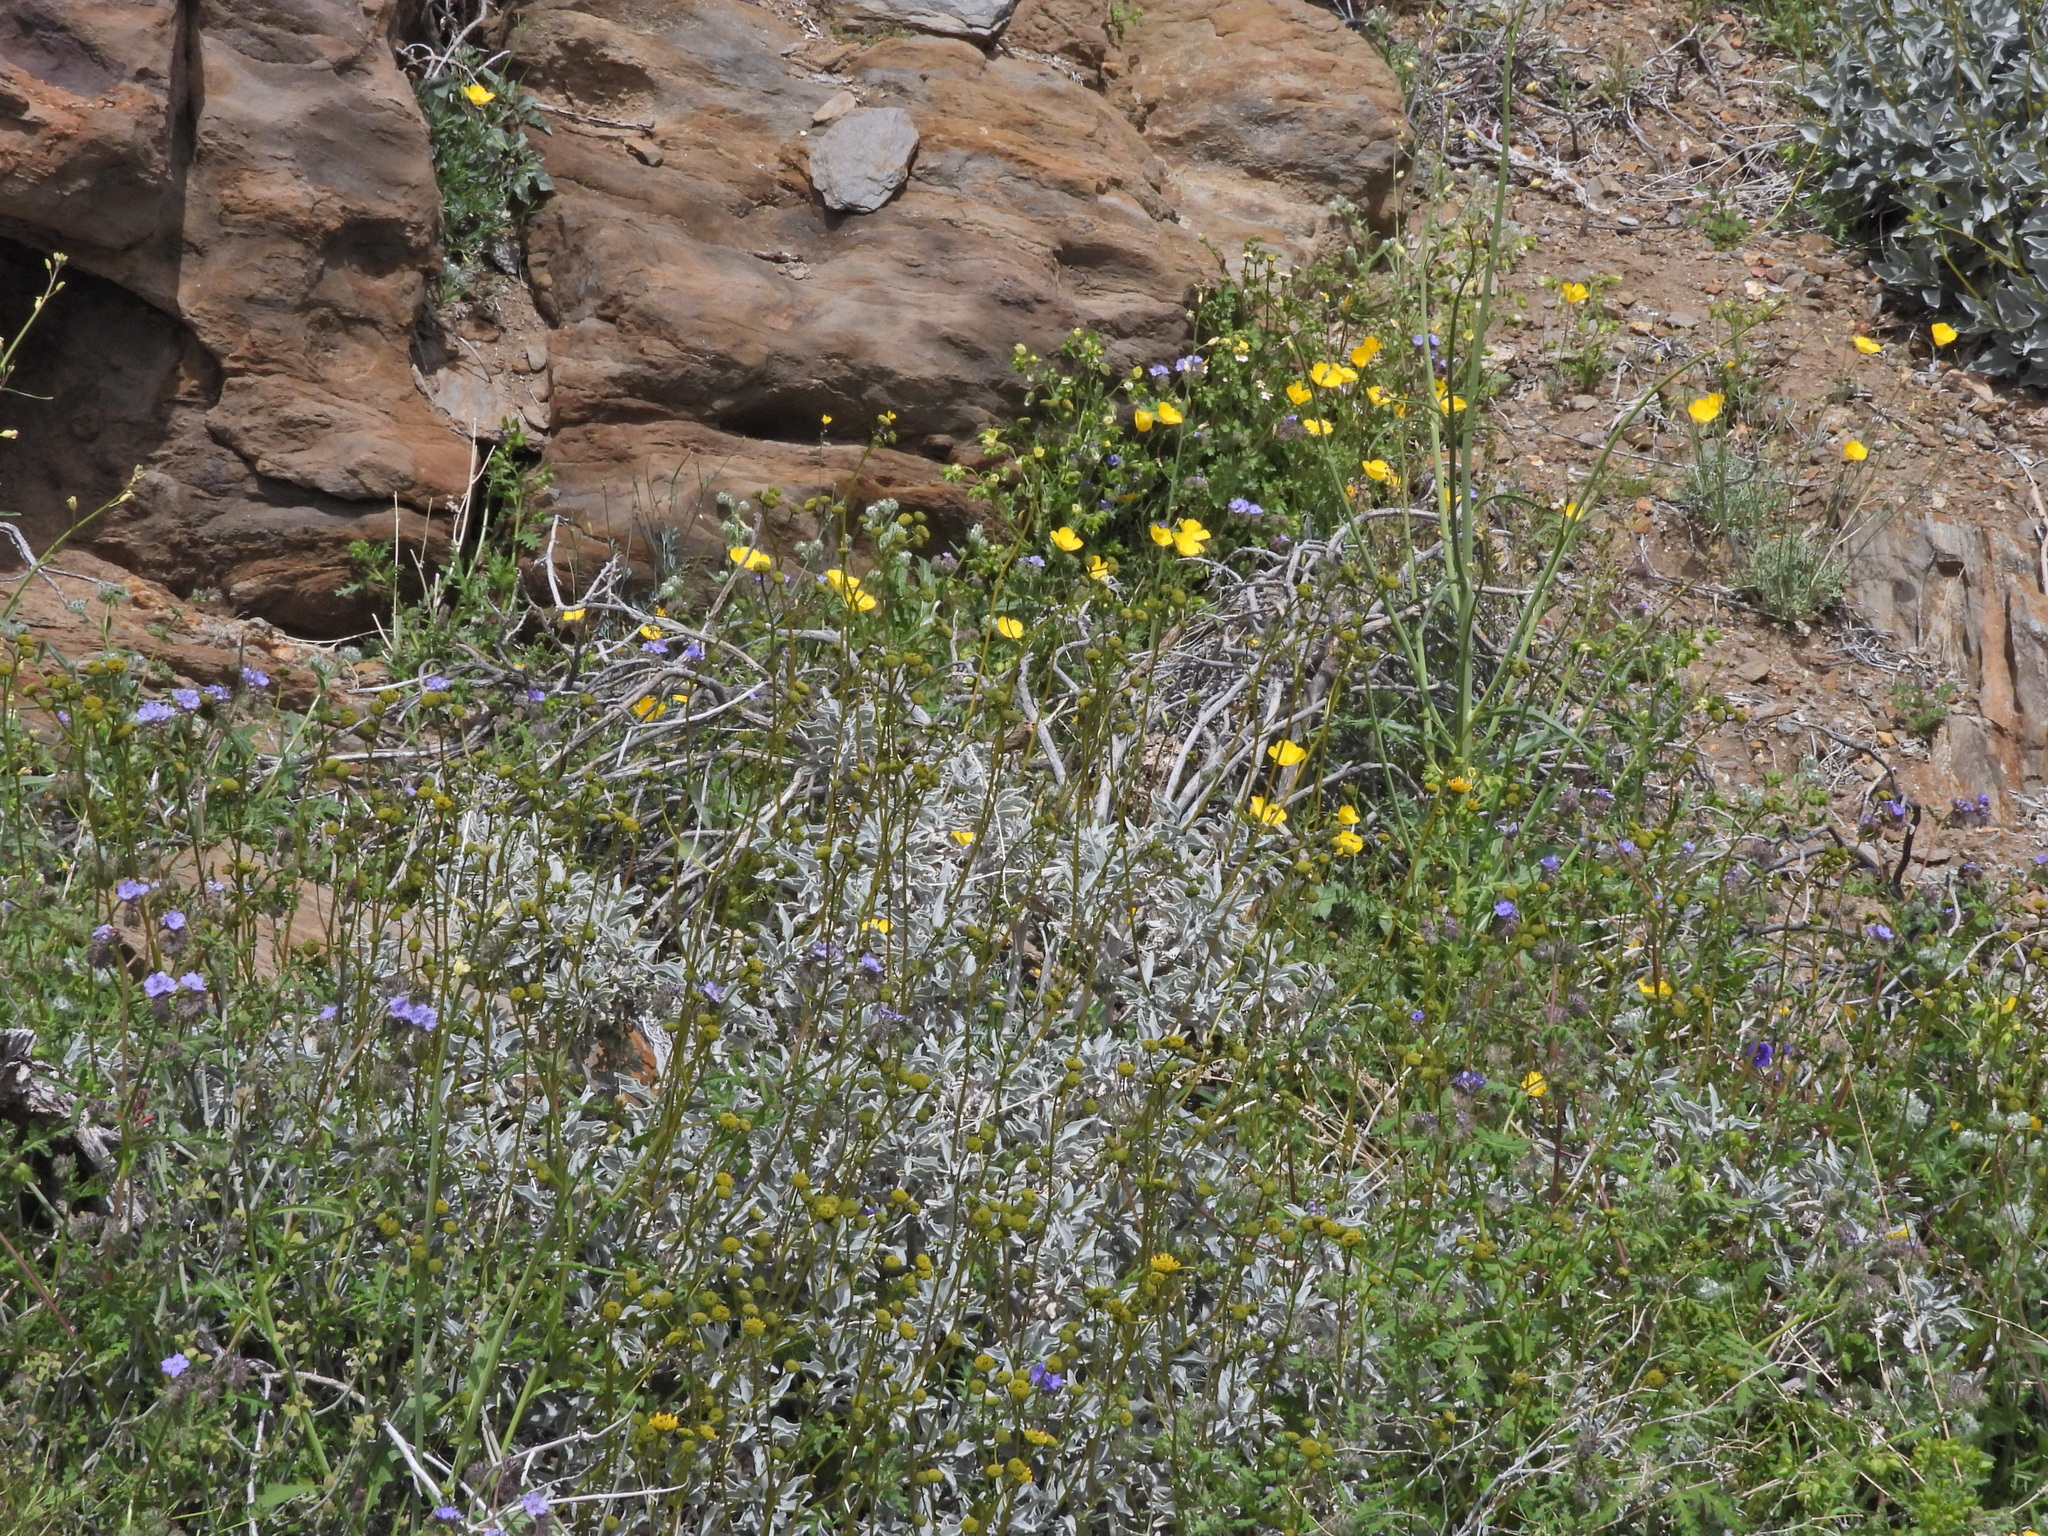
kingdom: Animalia
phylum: Chordata
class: Aves
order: Passeriformes
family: Fringillidae
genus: Spinus
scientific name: Spinus lawrencei
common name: Lawrence's goldfinch
